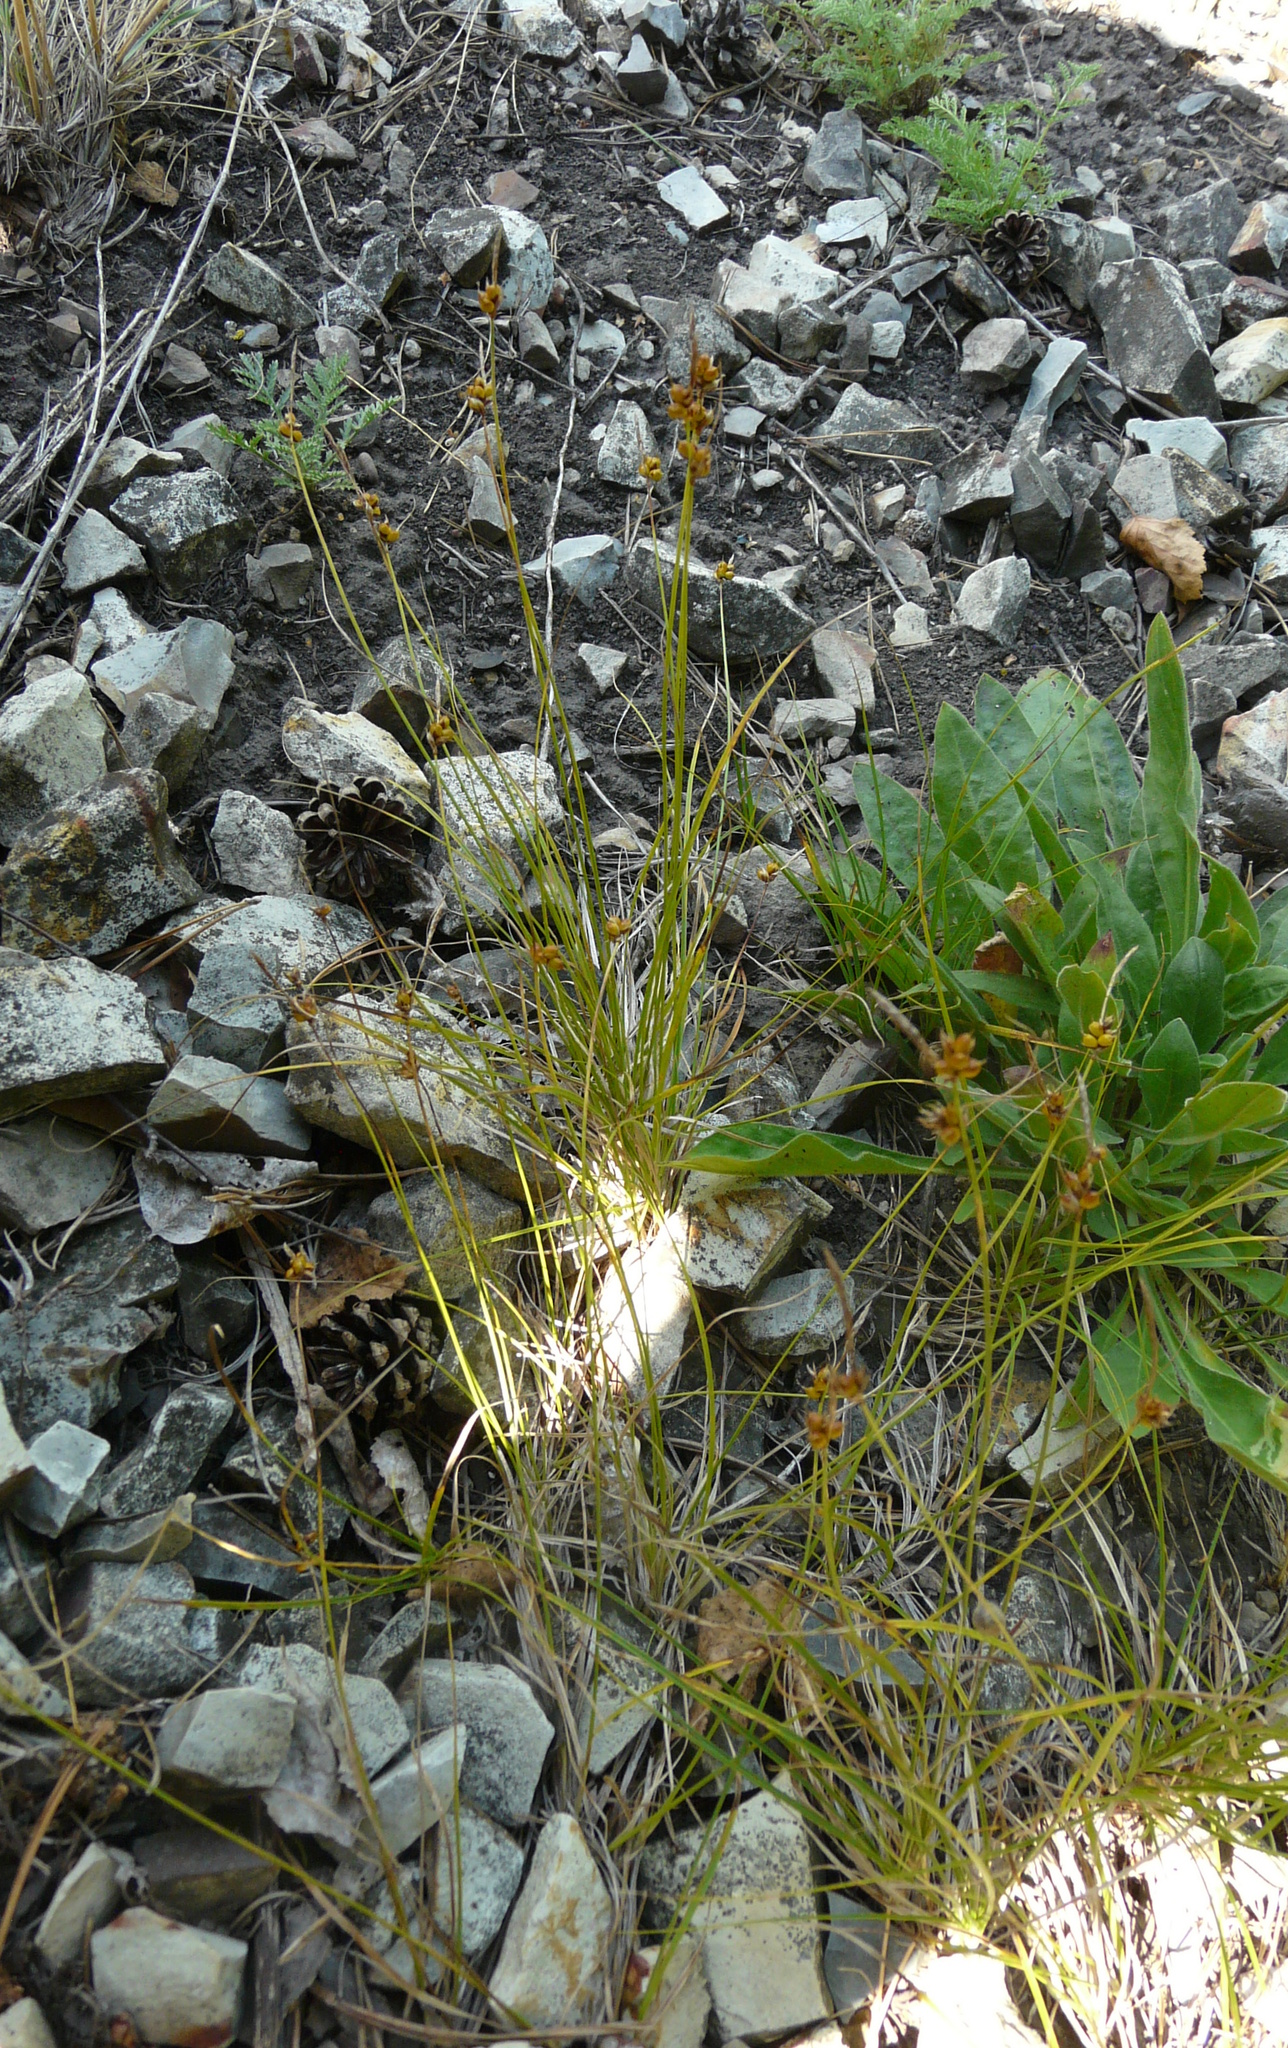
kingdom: Plantae
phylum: Tracheophyta
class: Liliopsida
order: Poales
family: Cyperaceae
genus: Carex
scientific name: Carex supina
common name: Lying-back sedge
